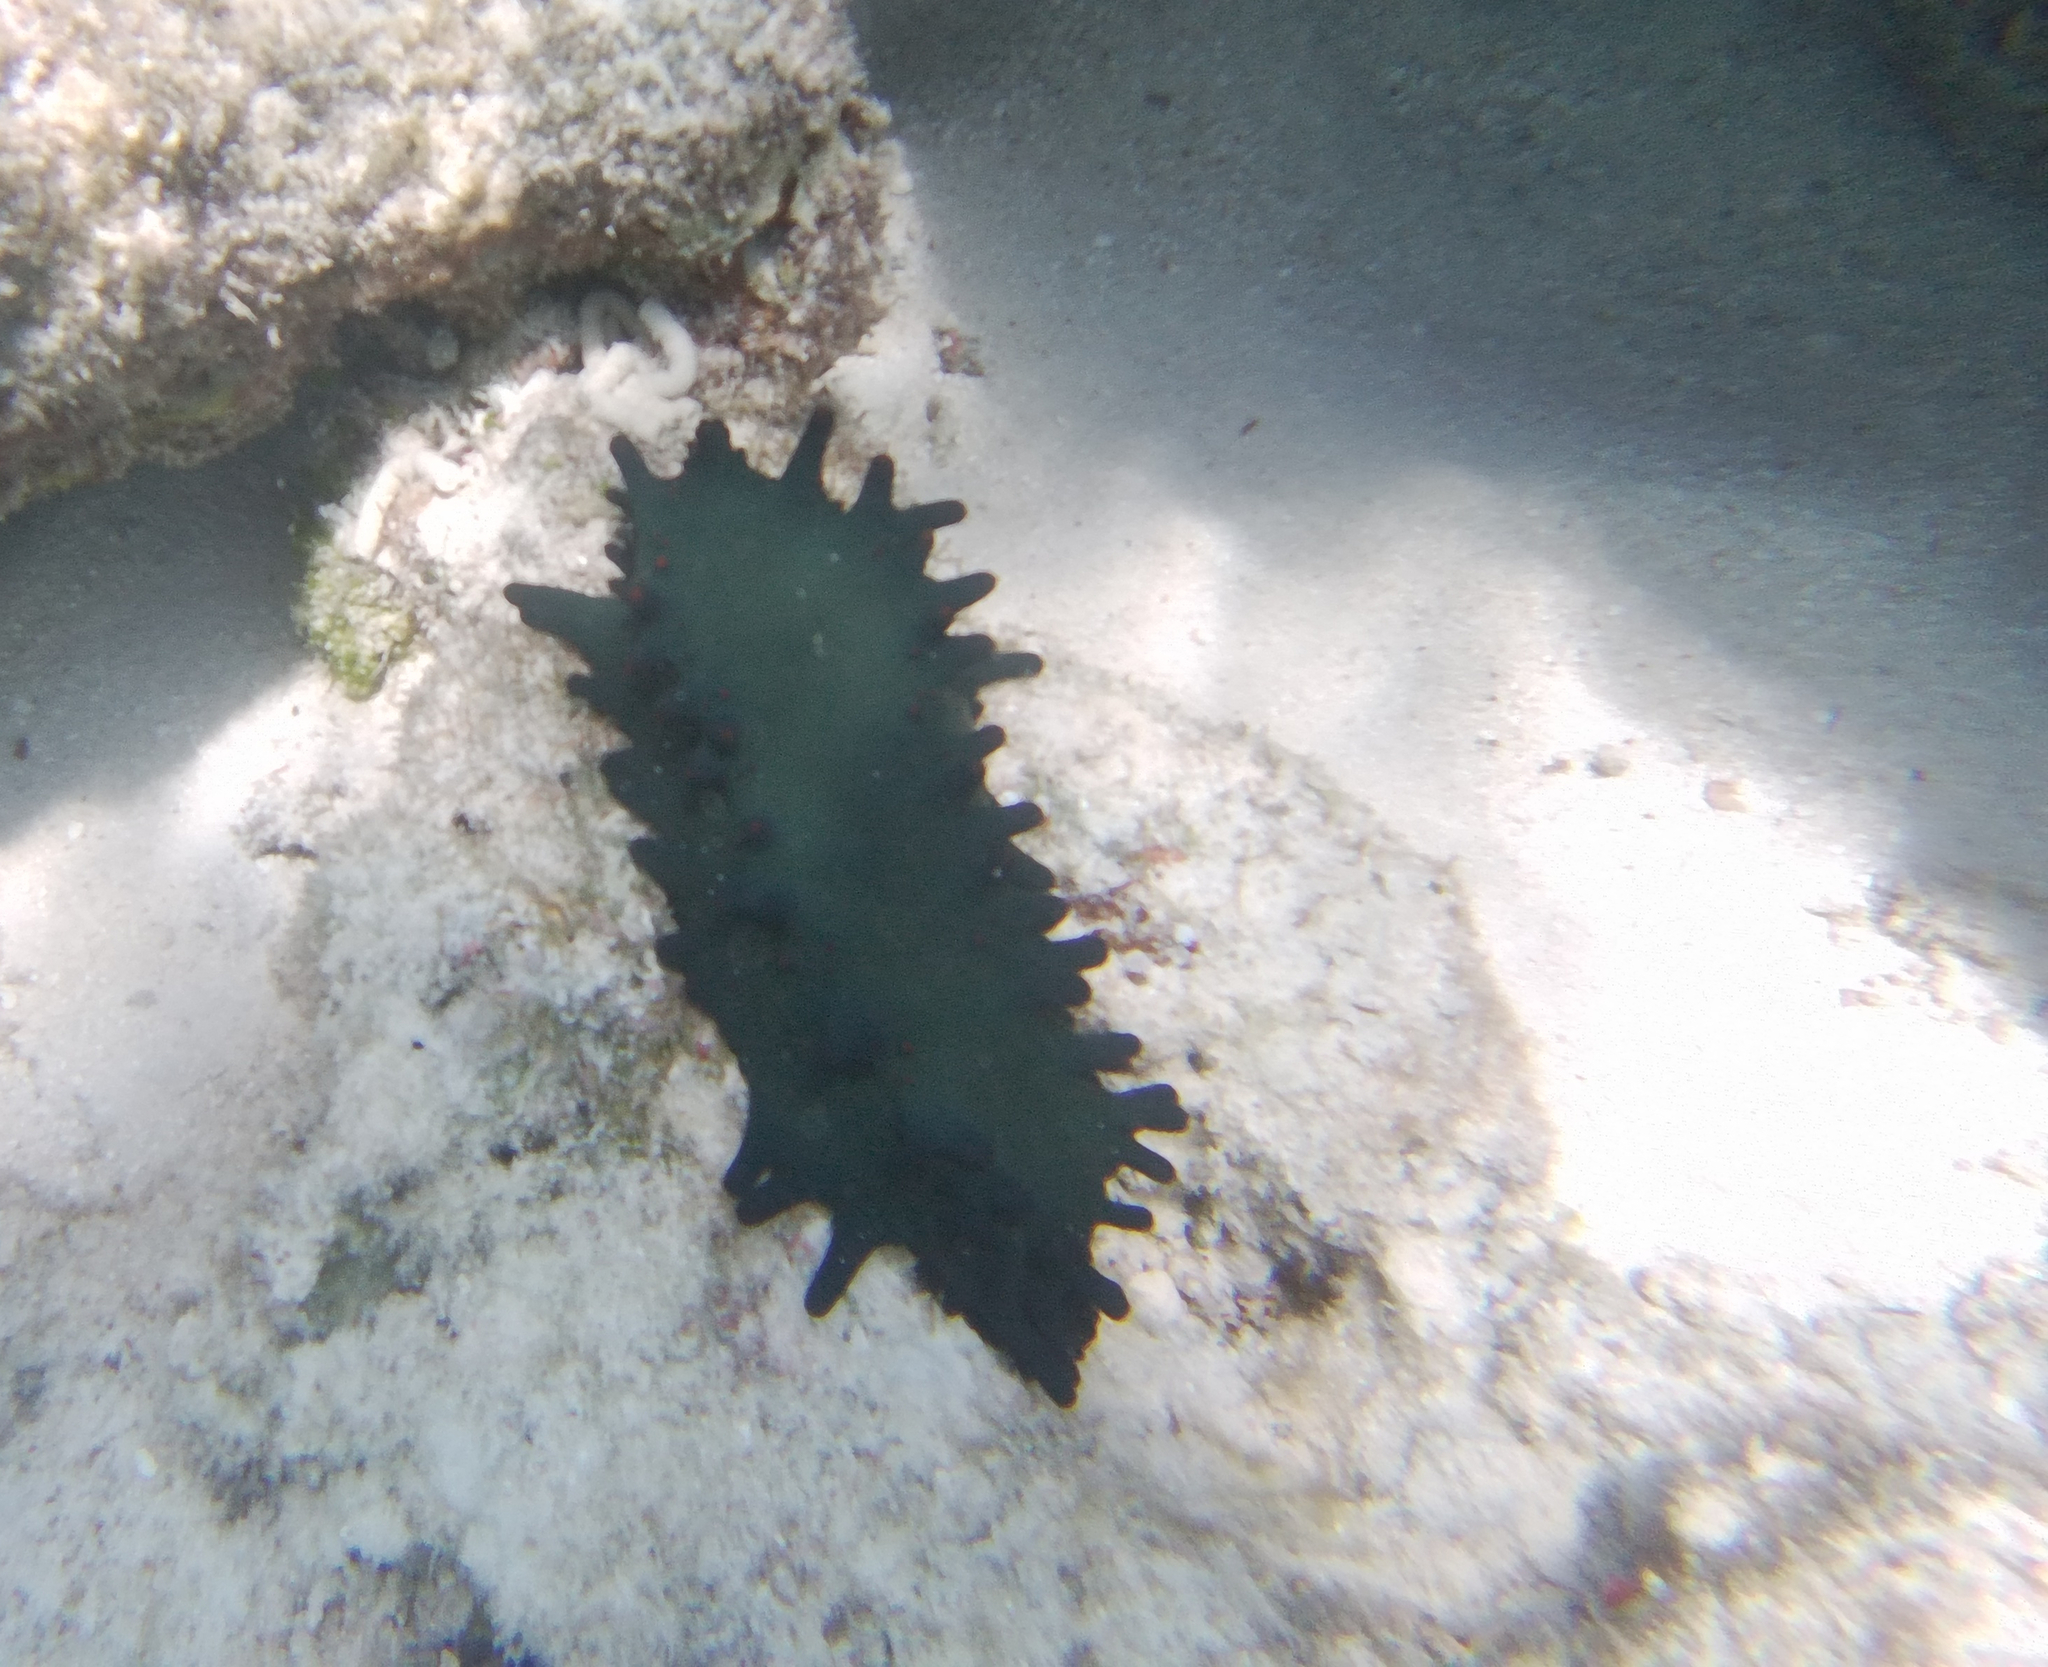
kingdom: Animalia
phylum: Echinodermata
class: Holothuroidea
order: Synallactida
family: Stichopodidae
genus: Stichopus
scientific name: Stichopus chloronotus
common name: Greenfish
